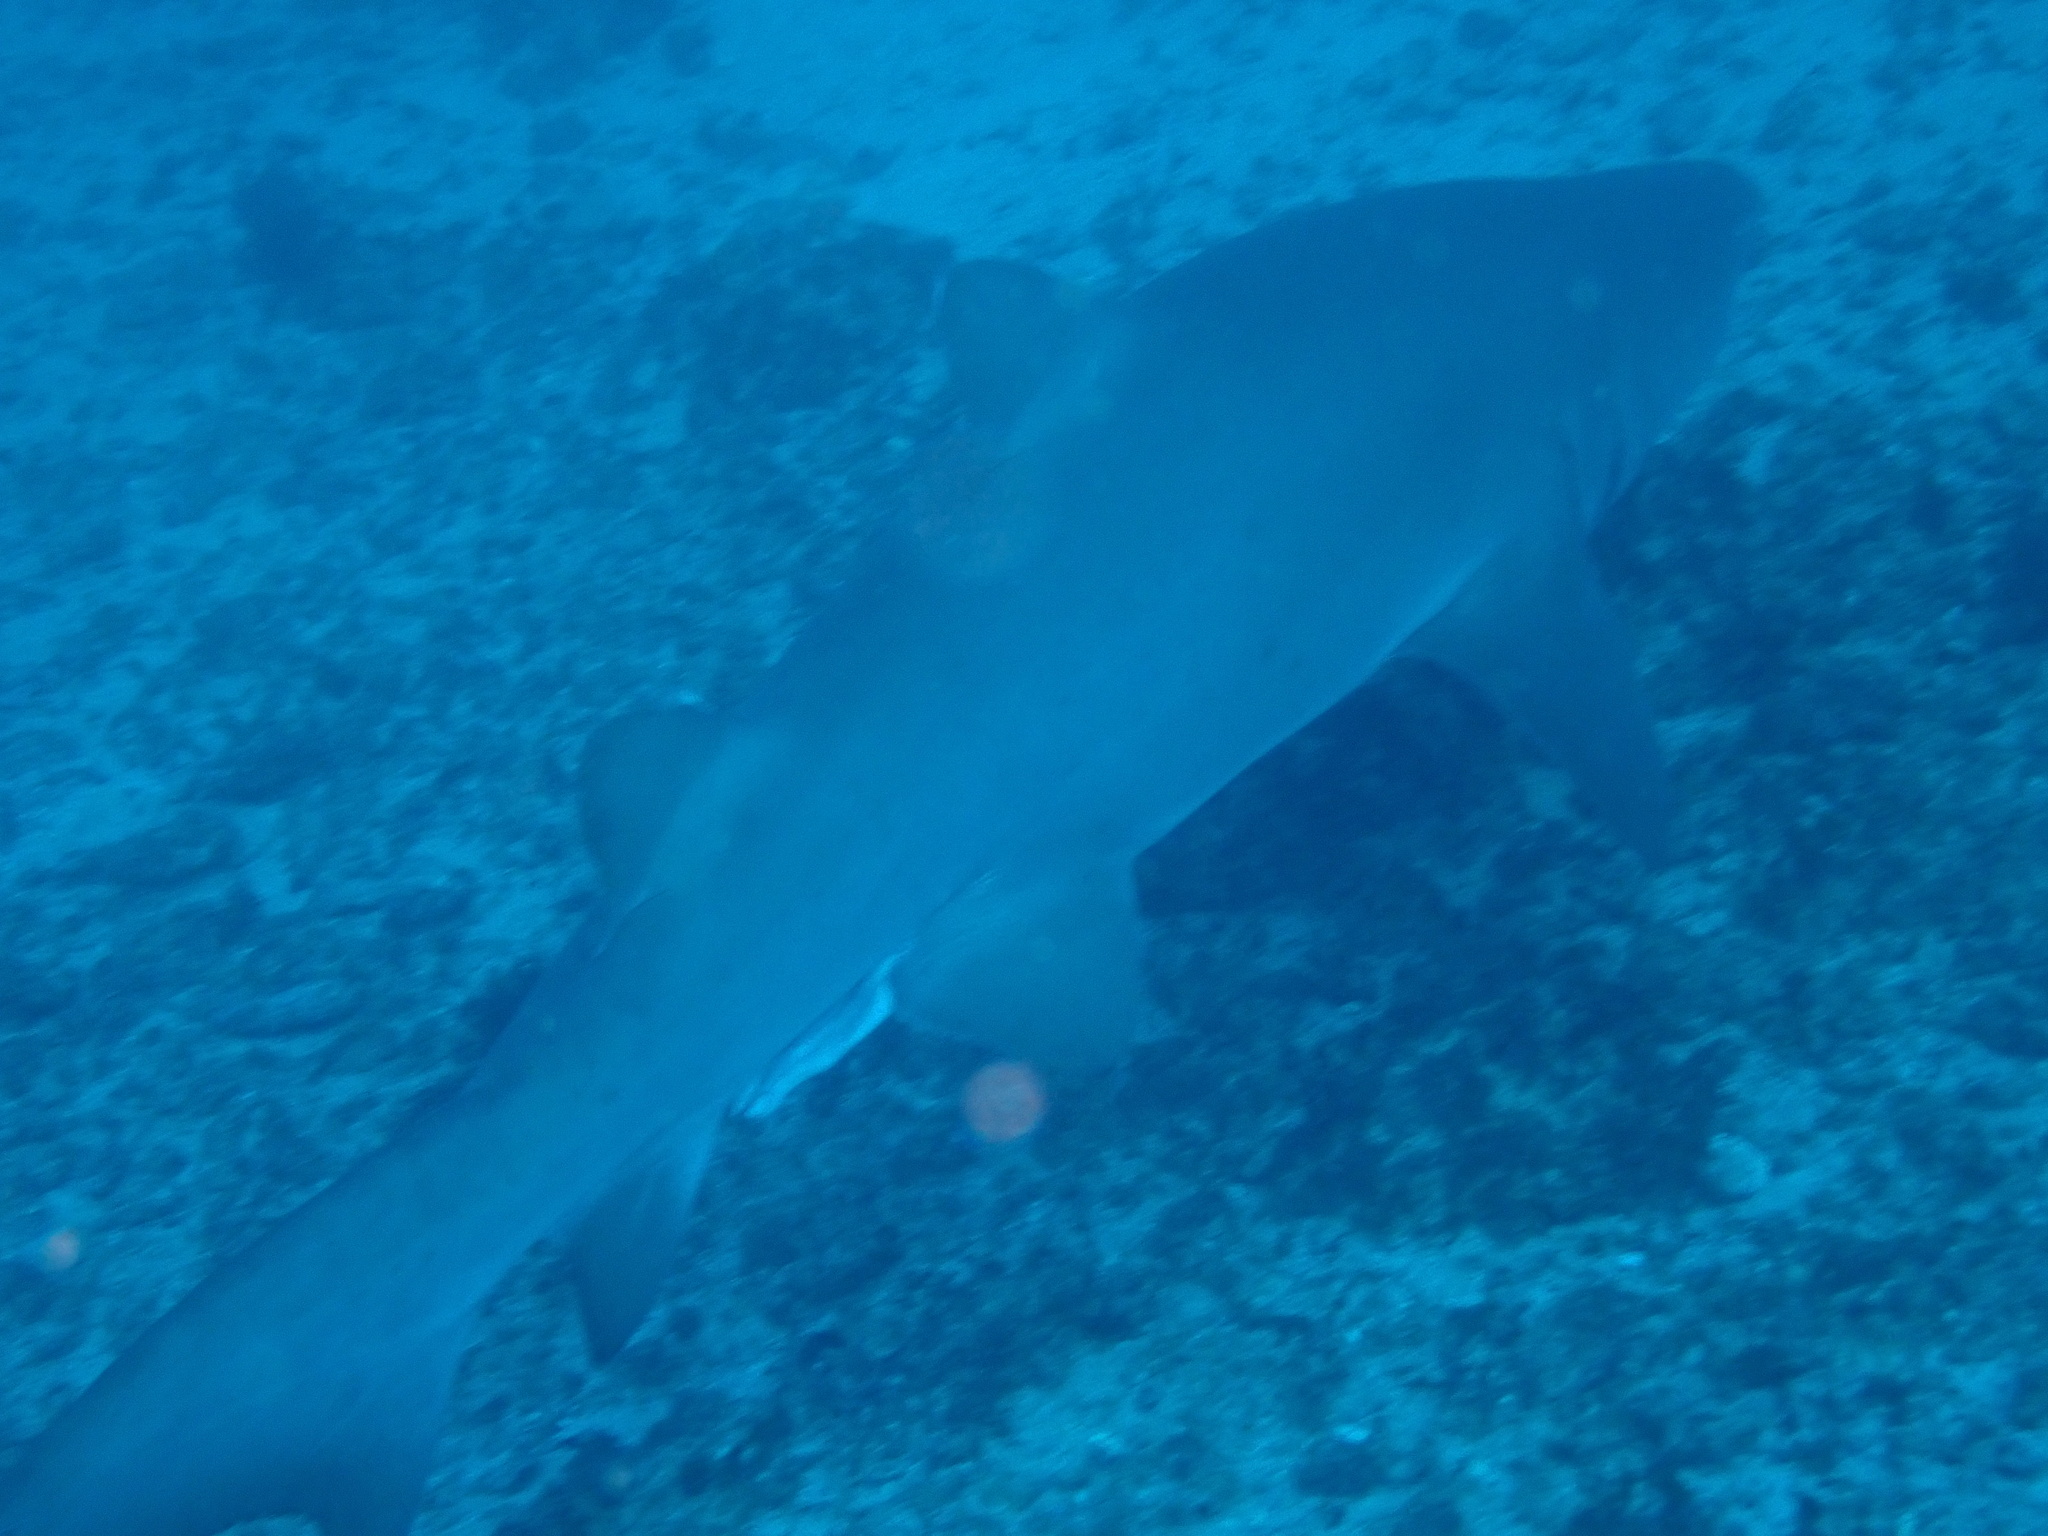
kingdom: Animalia
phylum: Chordata
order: Perciformes
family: Sparidae
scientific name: Sparidae
